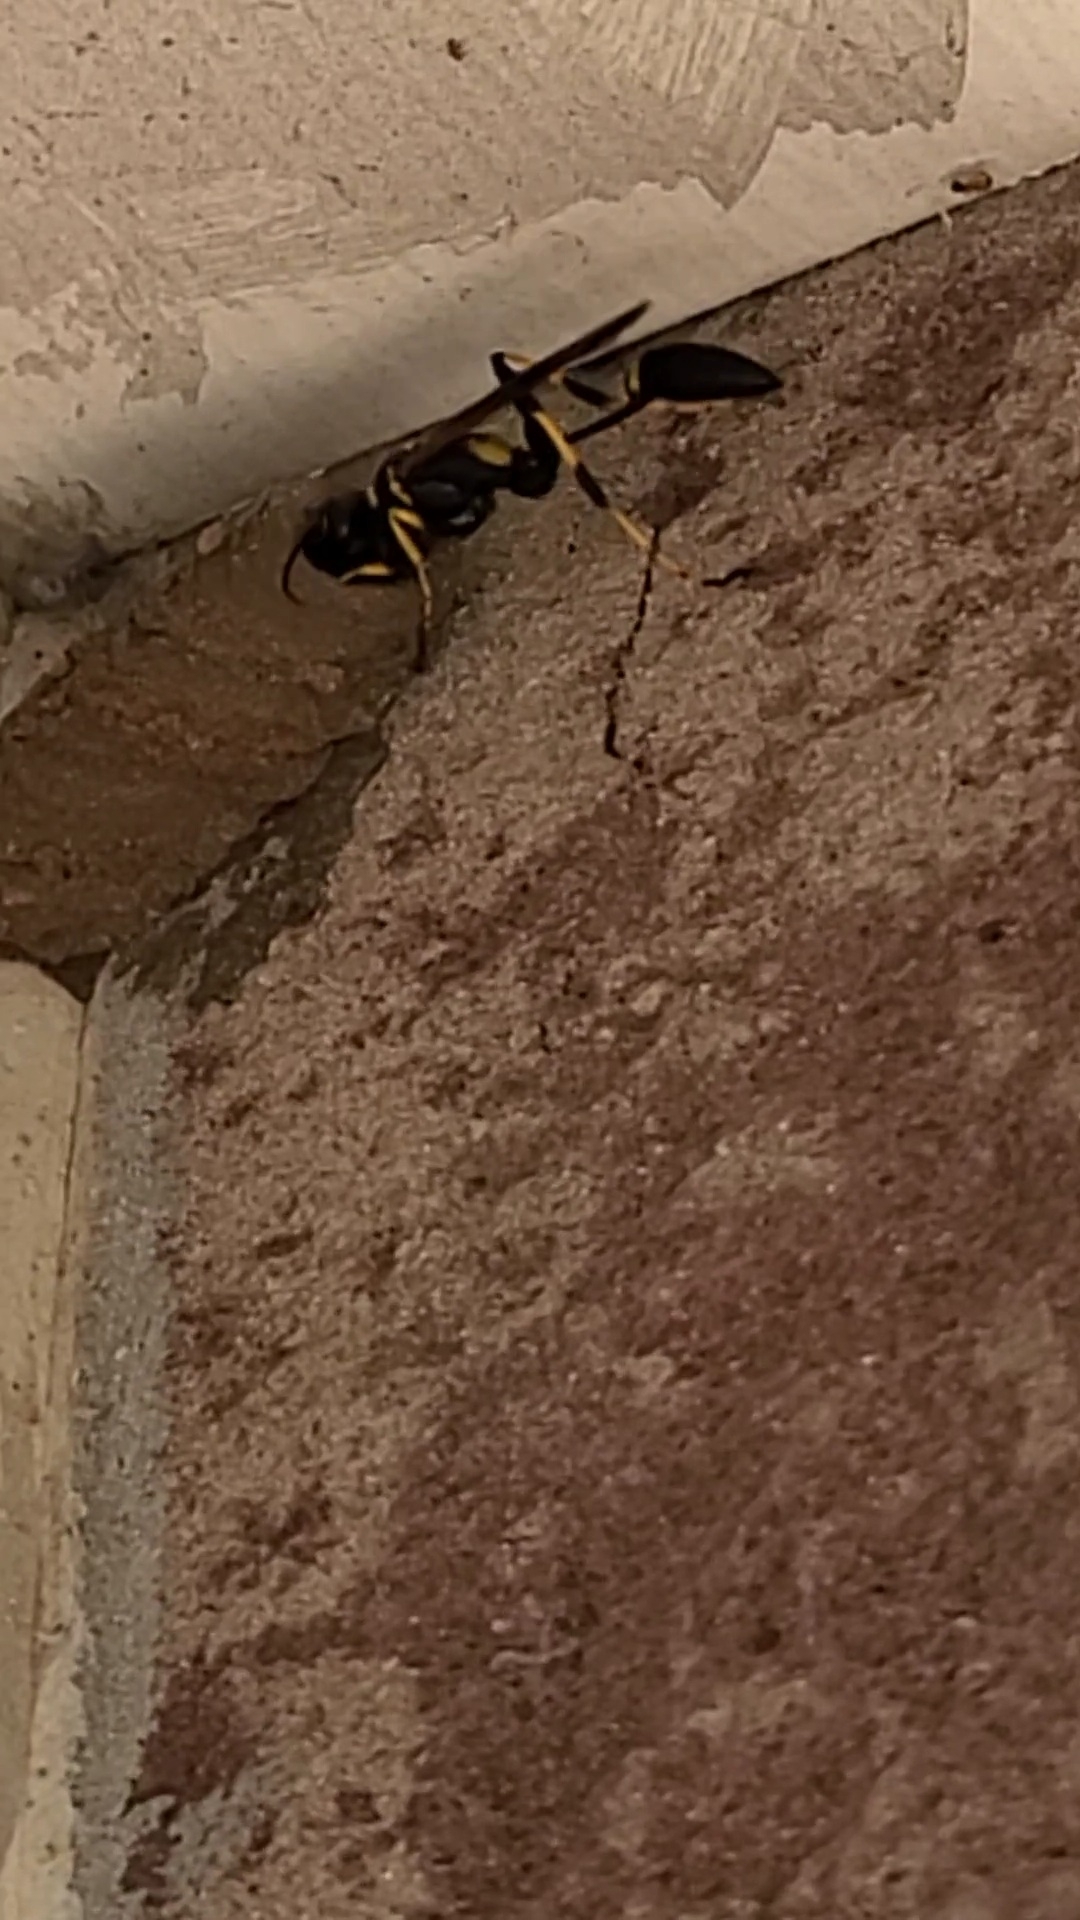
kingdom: Animalia
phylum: Arthropoda
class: Insecta
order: Hymenoptera
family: Sphecidae
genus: Sceliphron
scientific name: Sceliphron caementarium
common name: Mud dauber
